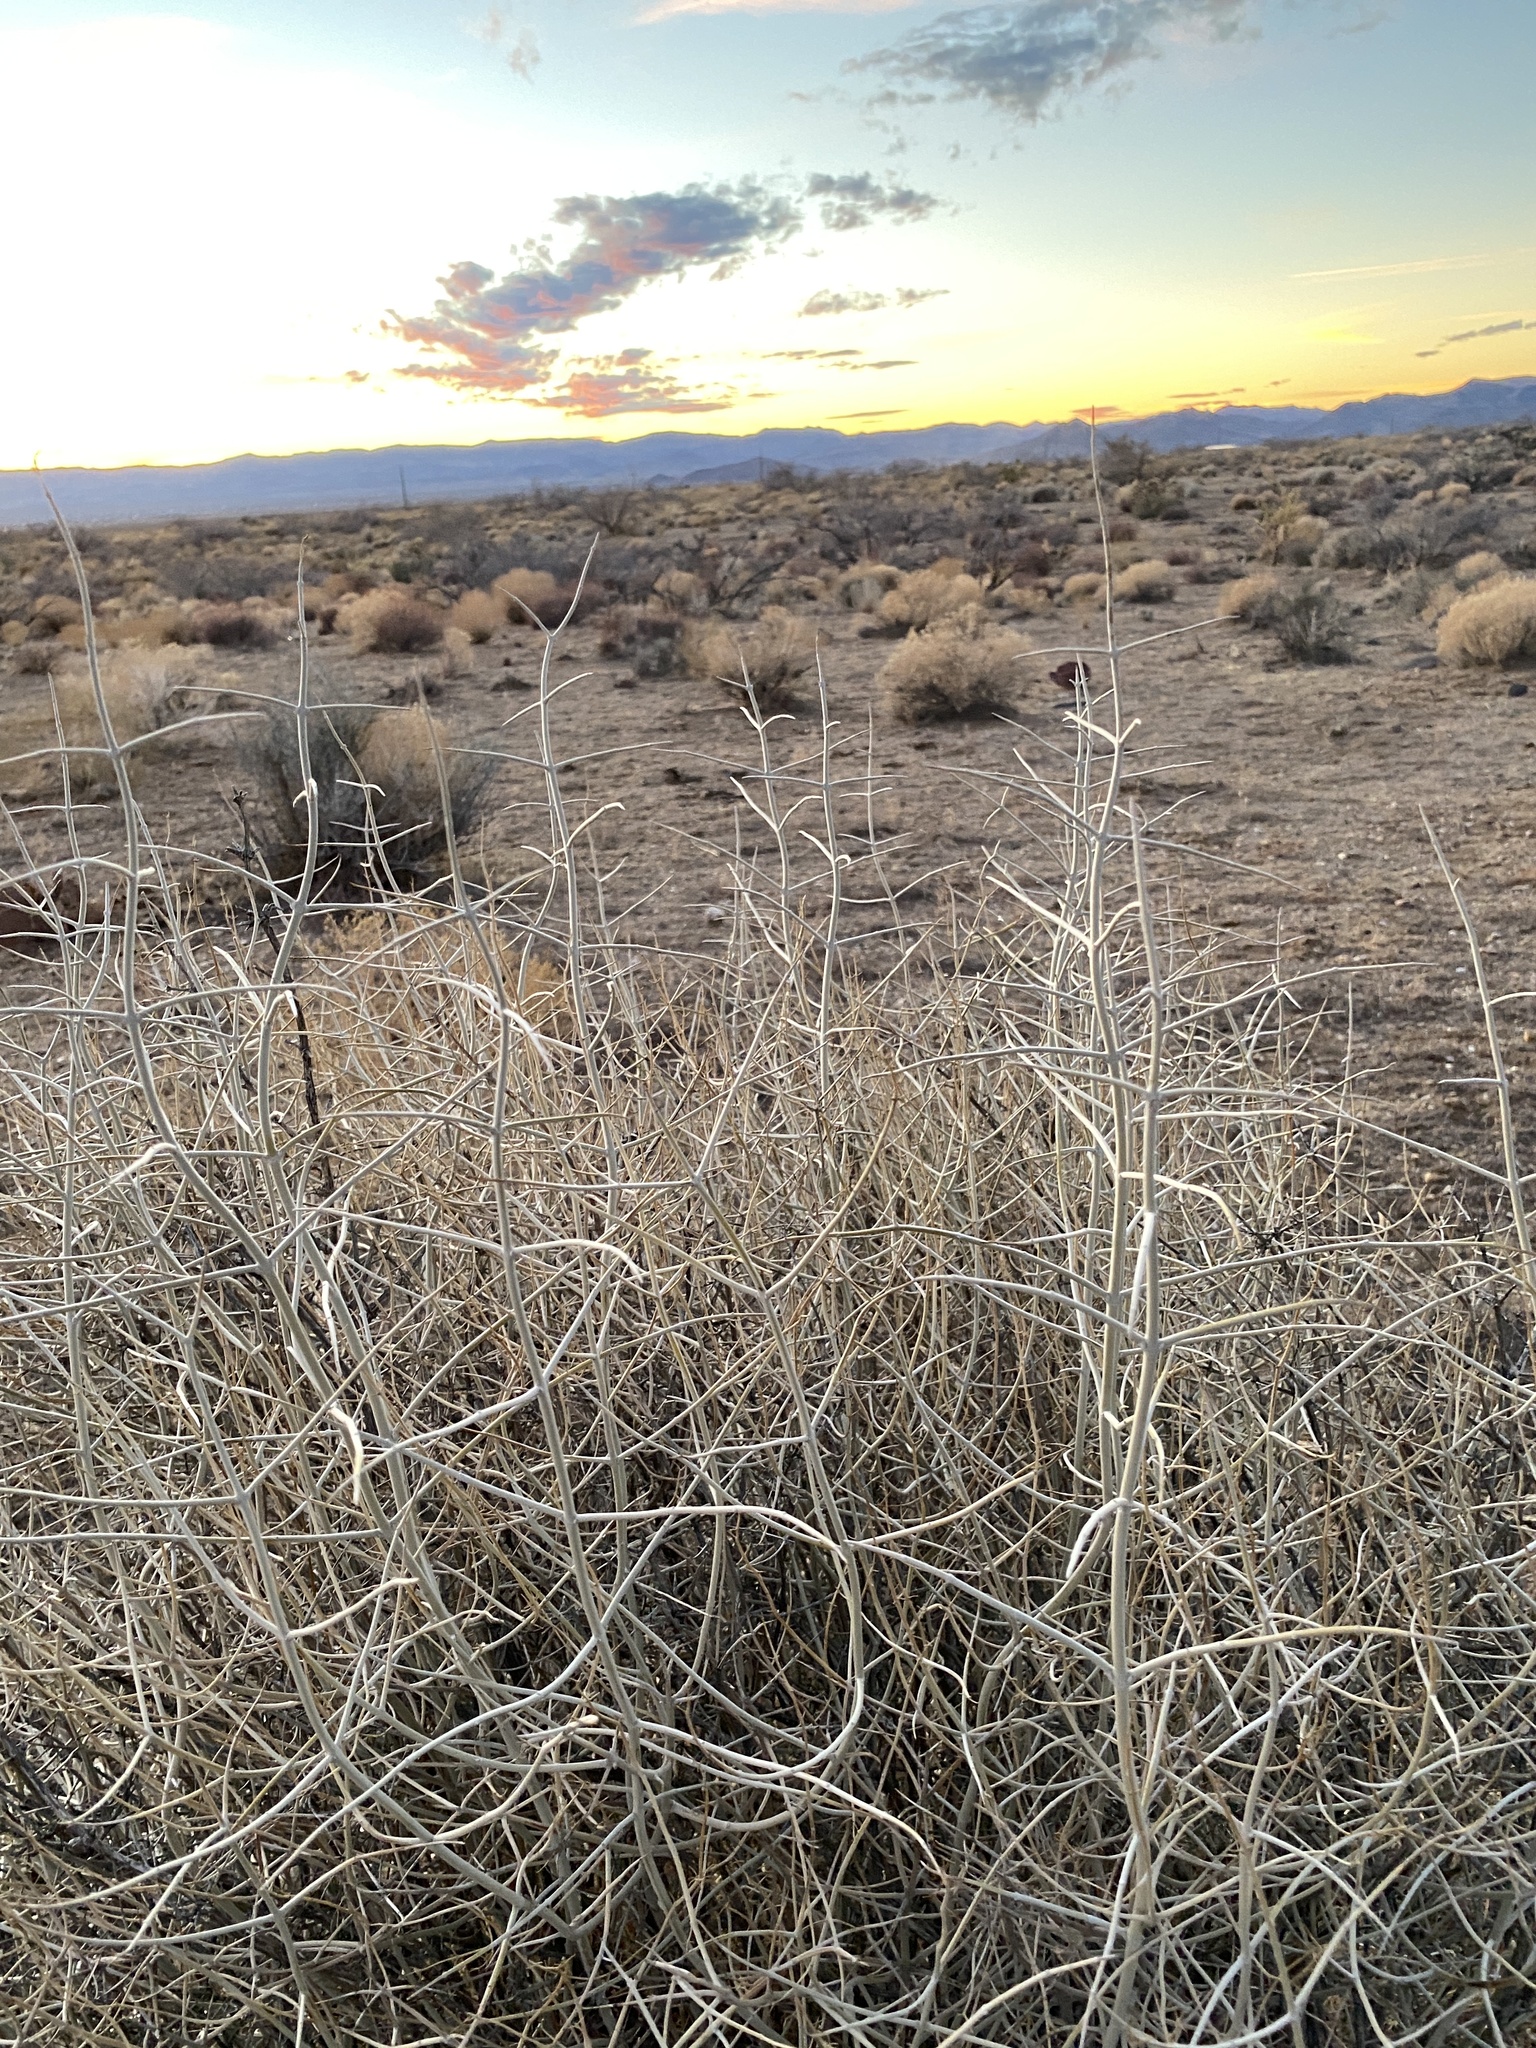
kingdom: Plantae
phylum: Tracheophyta
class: Magnoliopsida
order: Lamiales
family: Lamiaceae
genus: Scutellaria
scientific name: Scutellaria mexicana
